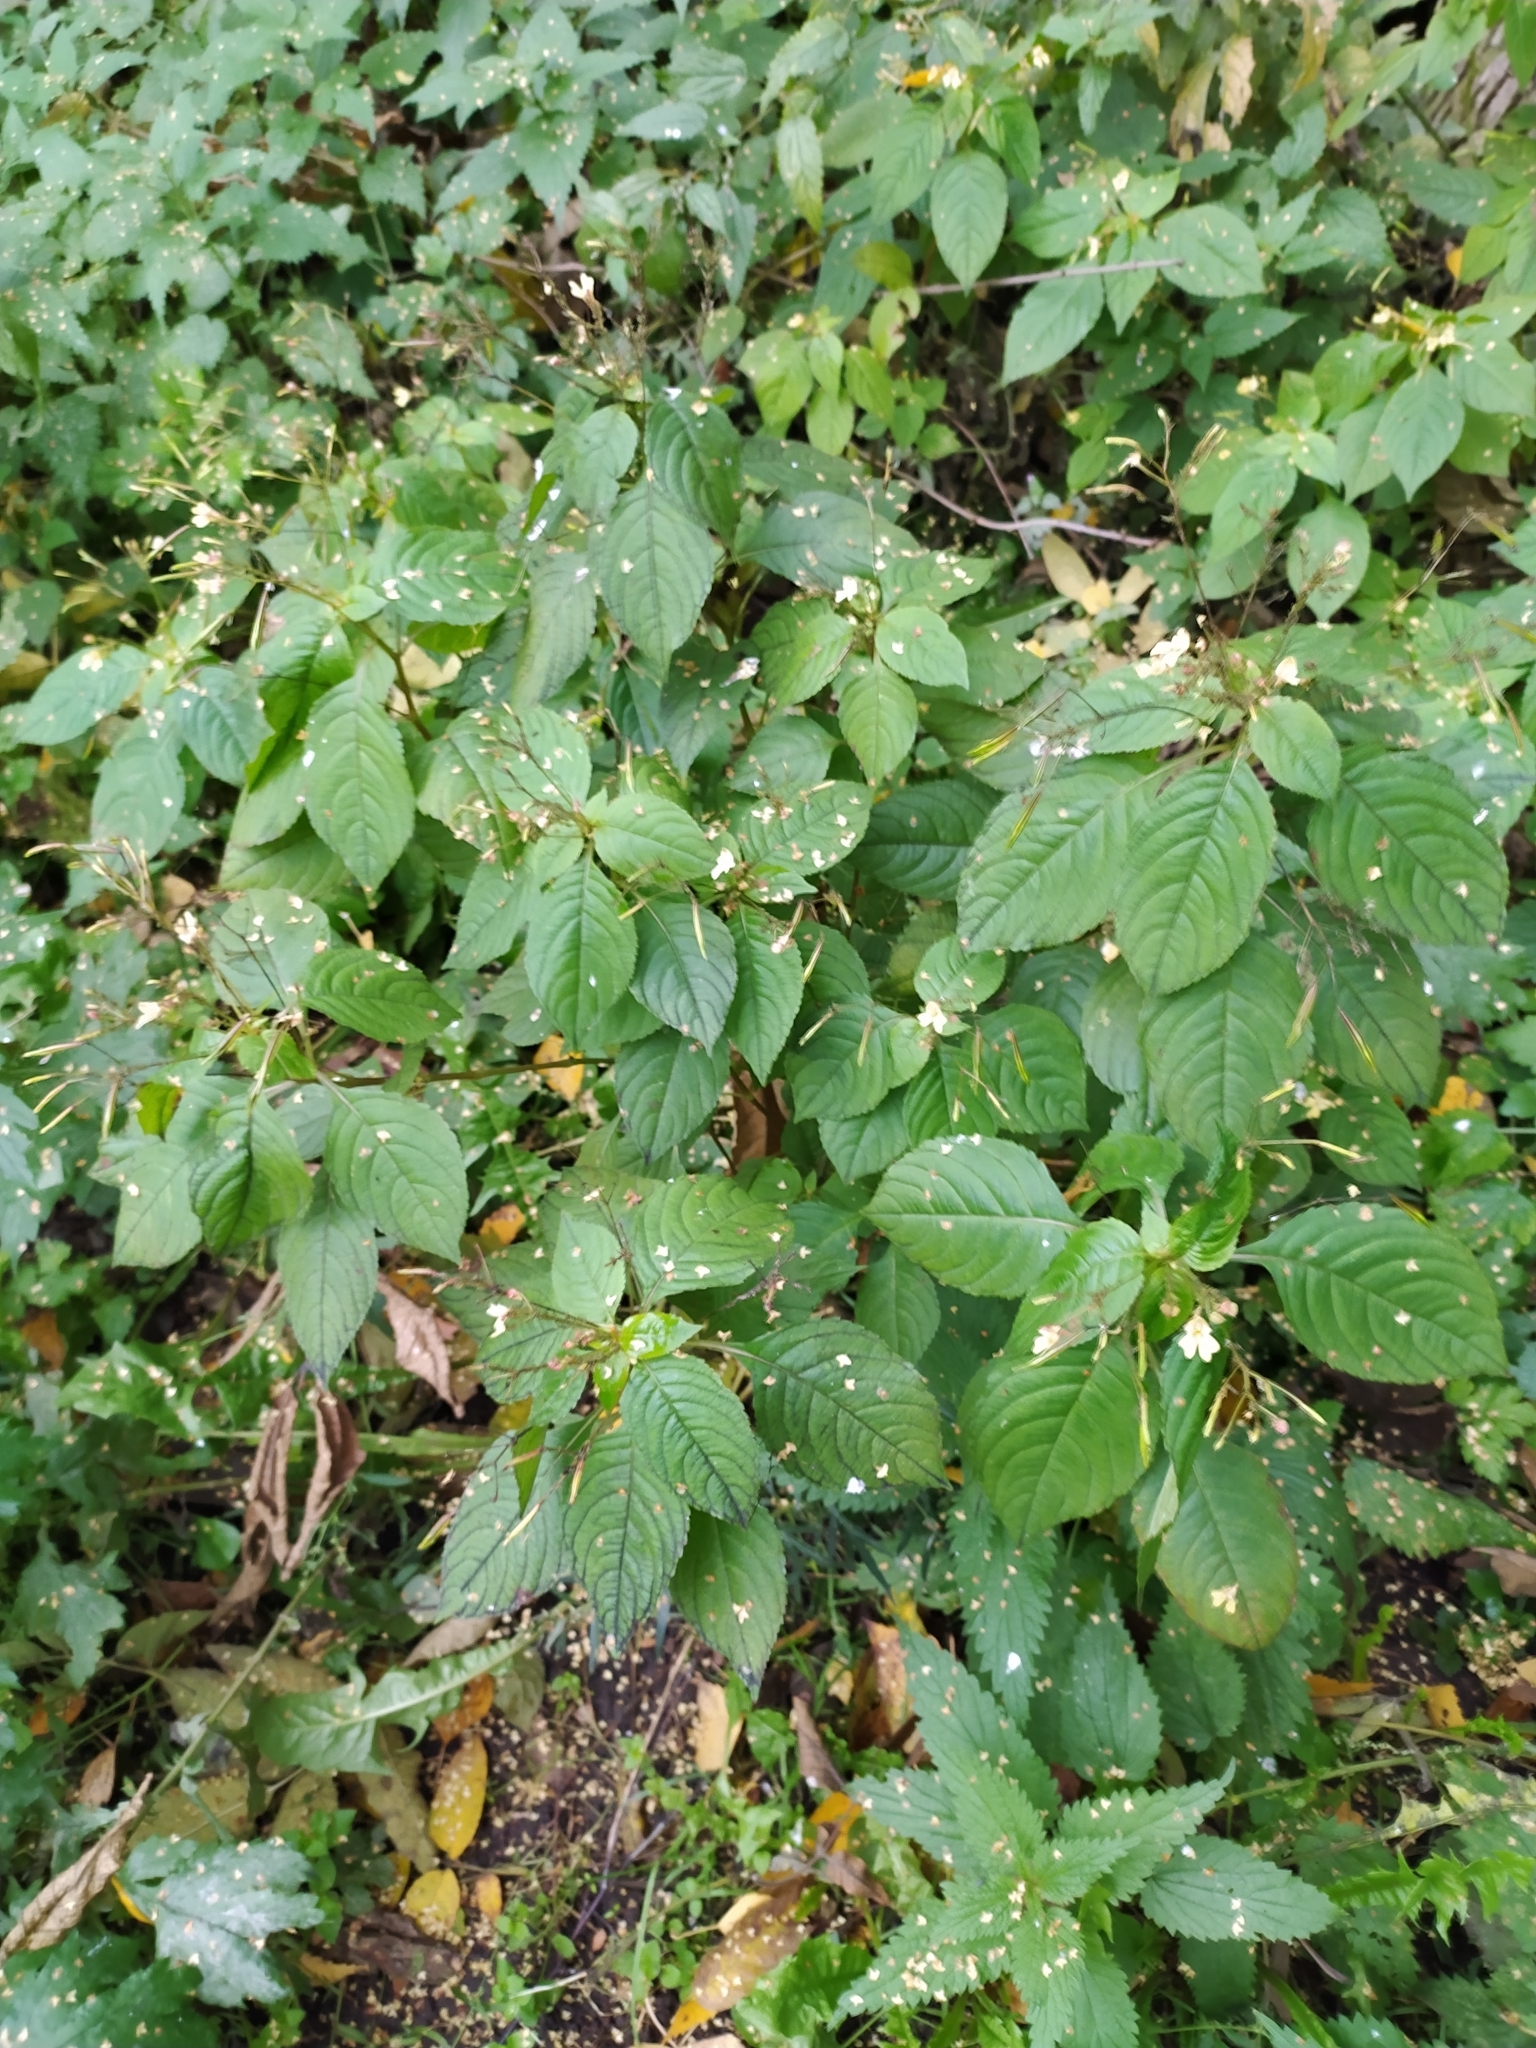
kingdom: Plantae
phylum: Tracheophyta
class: Magnoliopsida
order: Ericales
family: Balsaminaceae
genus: Impatiens
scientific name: Impatiens parviflora
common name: Small balsam
